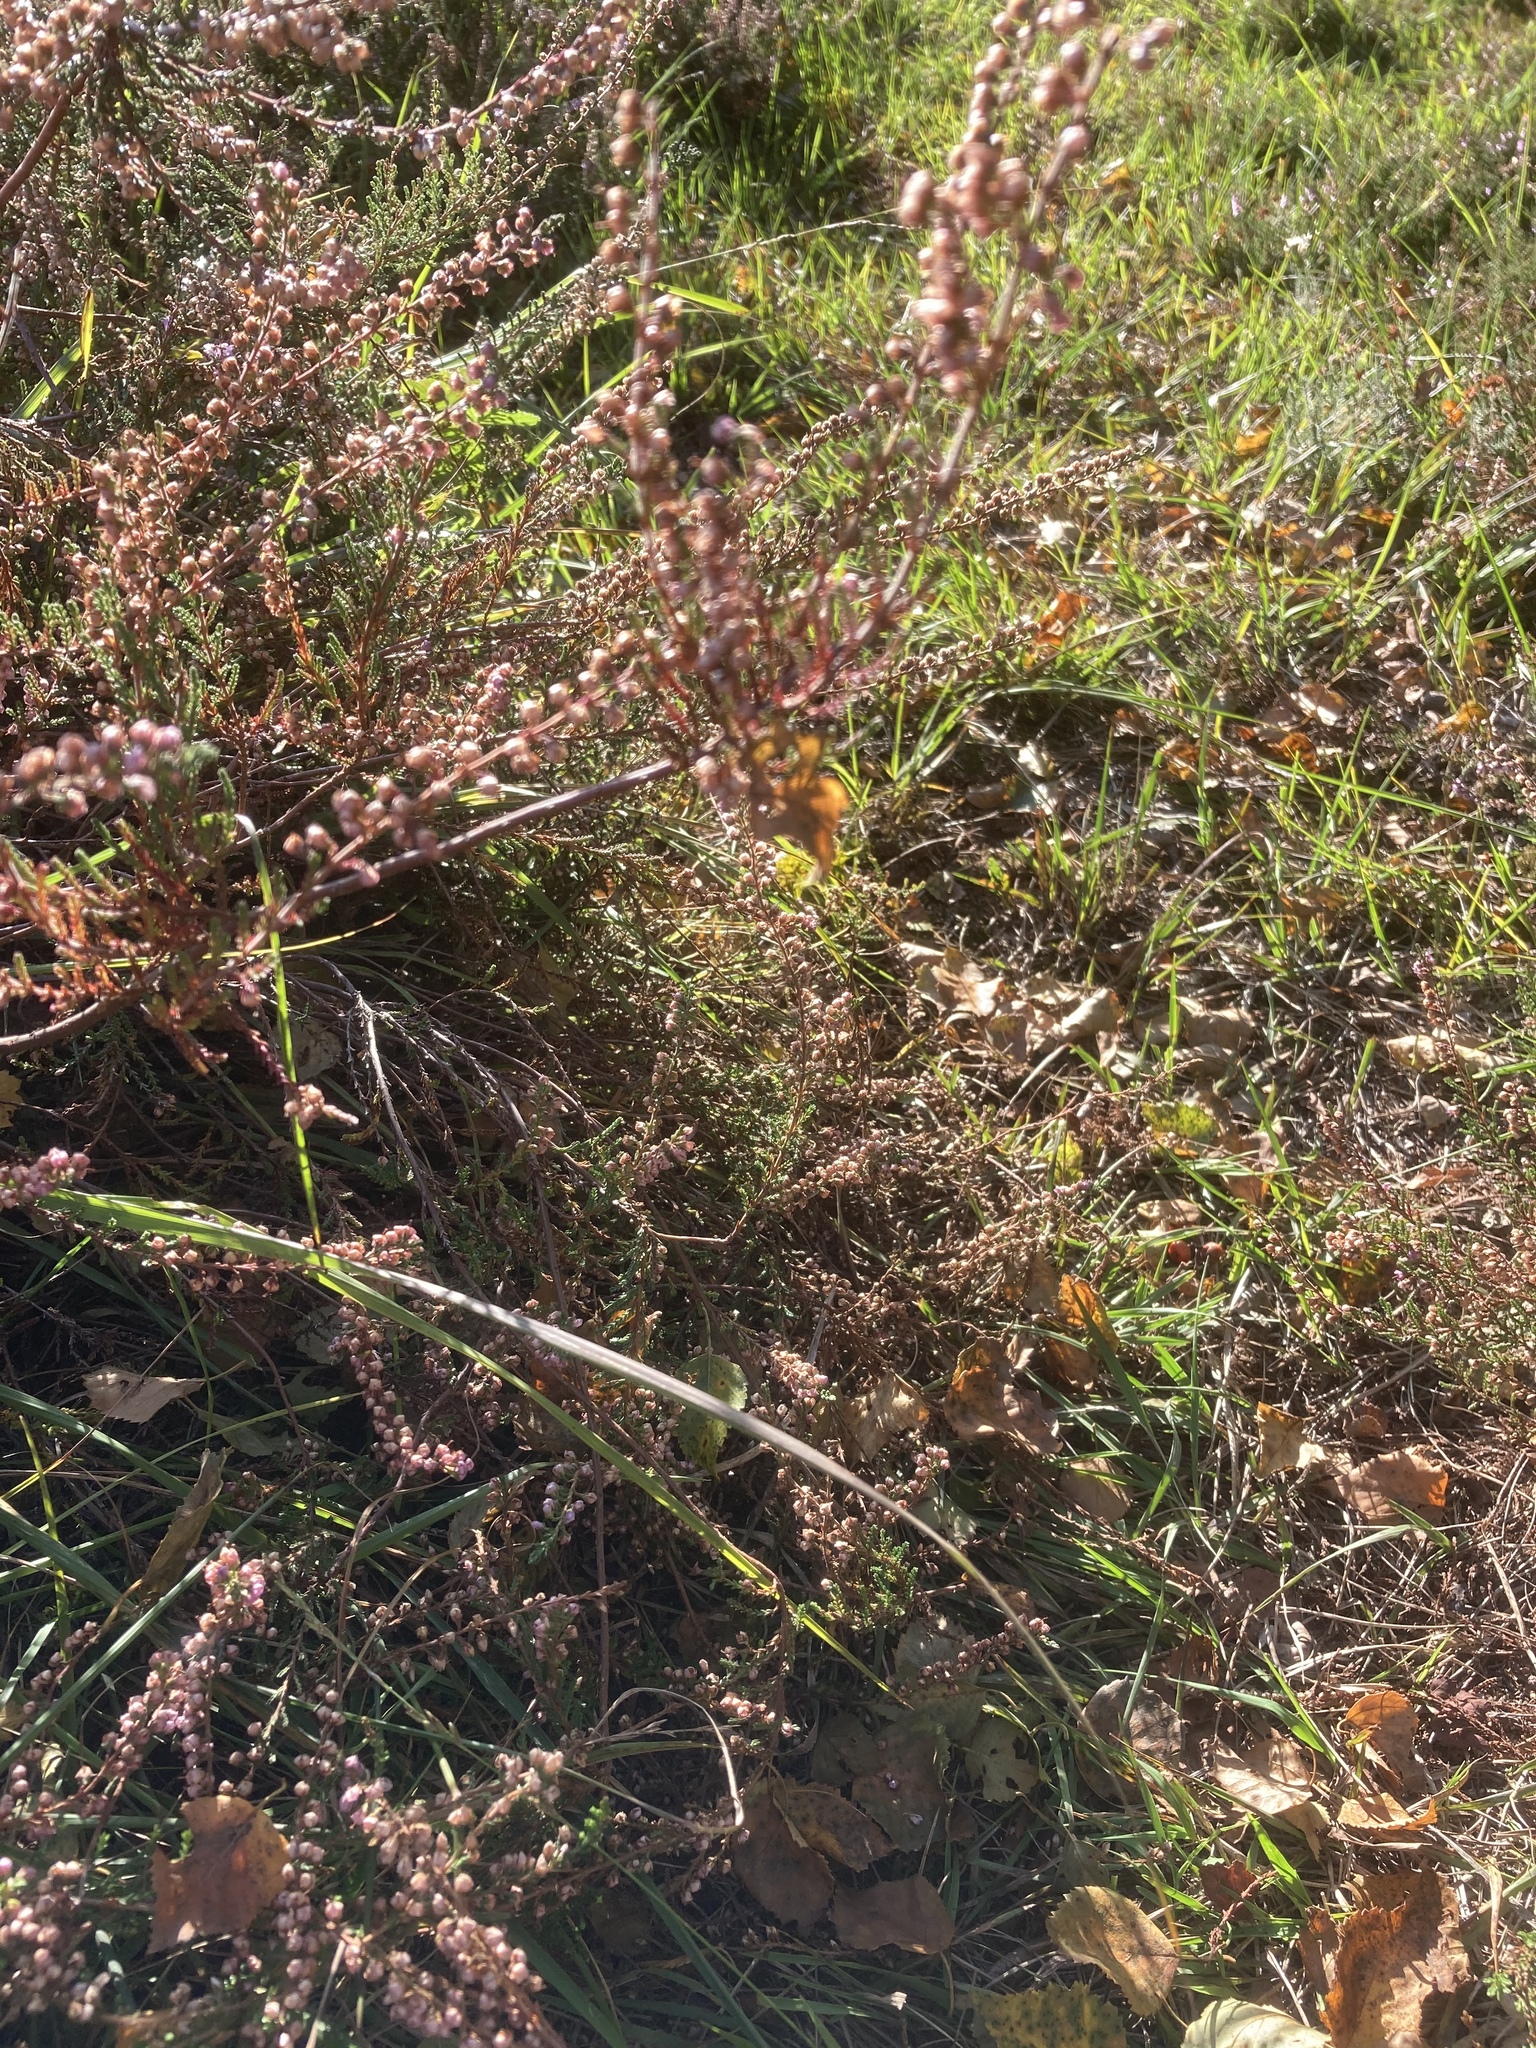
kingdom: Plantae
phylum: Tracheophyta
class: Magnoliopsida
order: Ericales
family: Ericaceae
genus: Calluna
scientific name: Calluna vulgaris
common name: Heather
